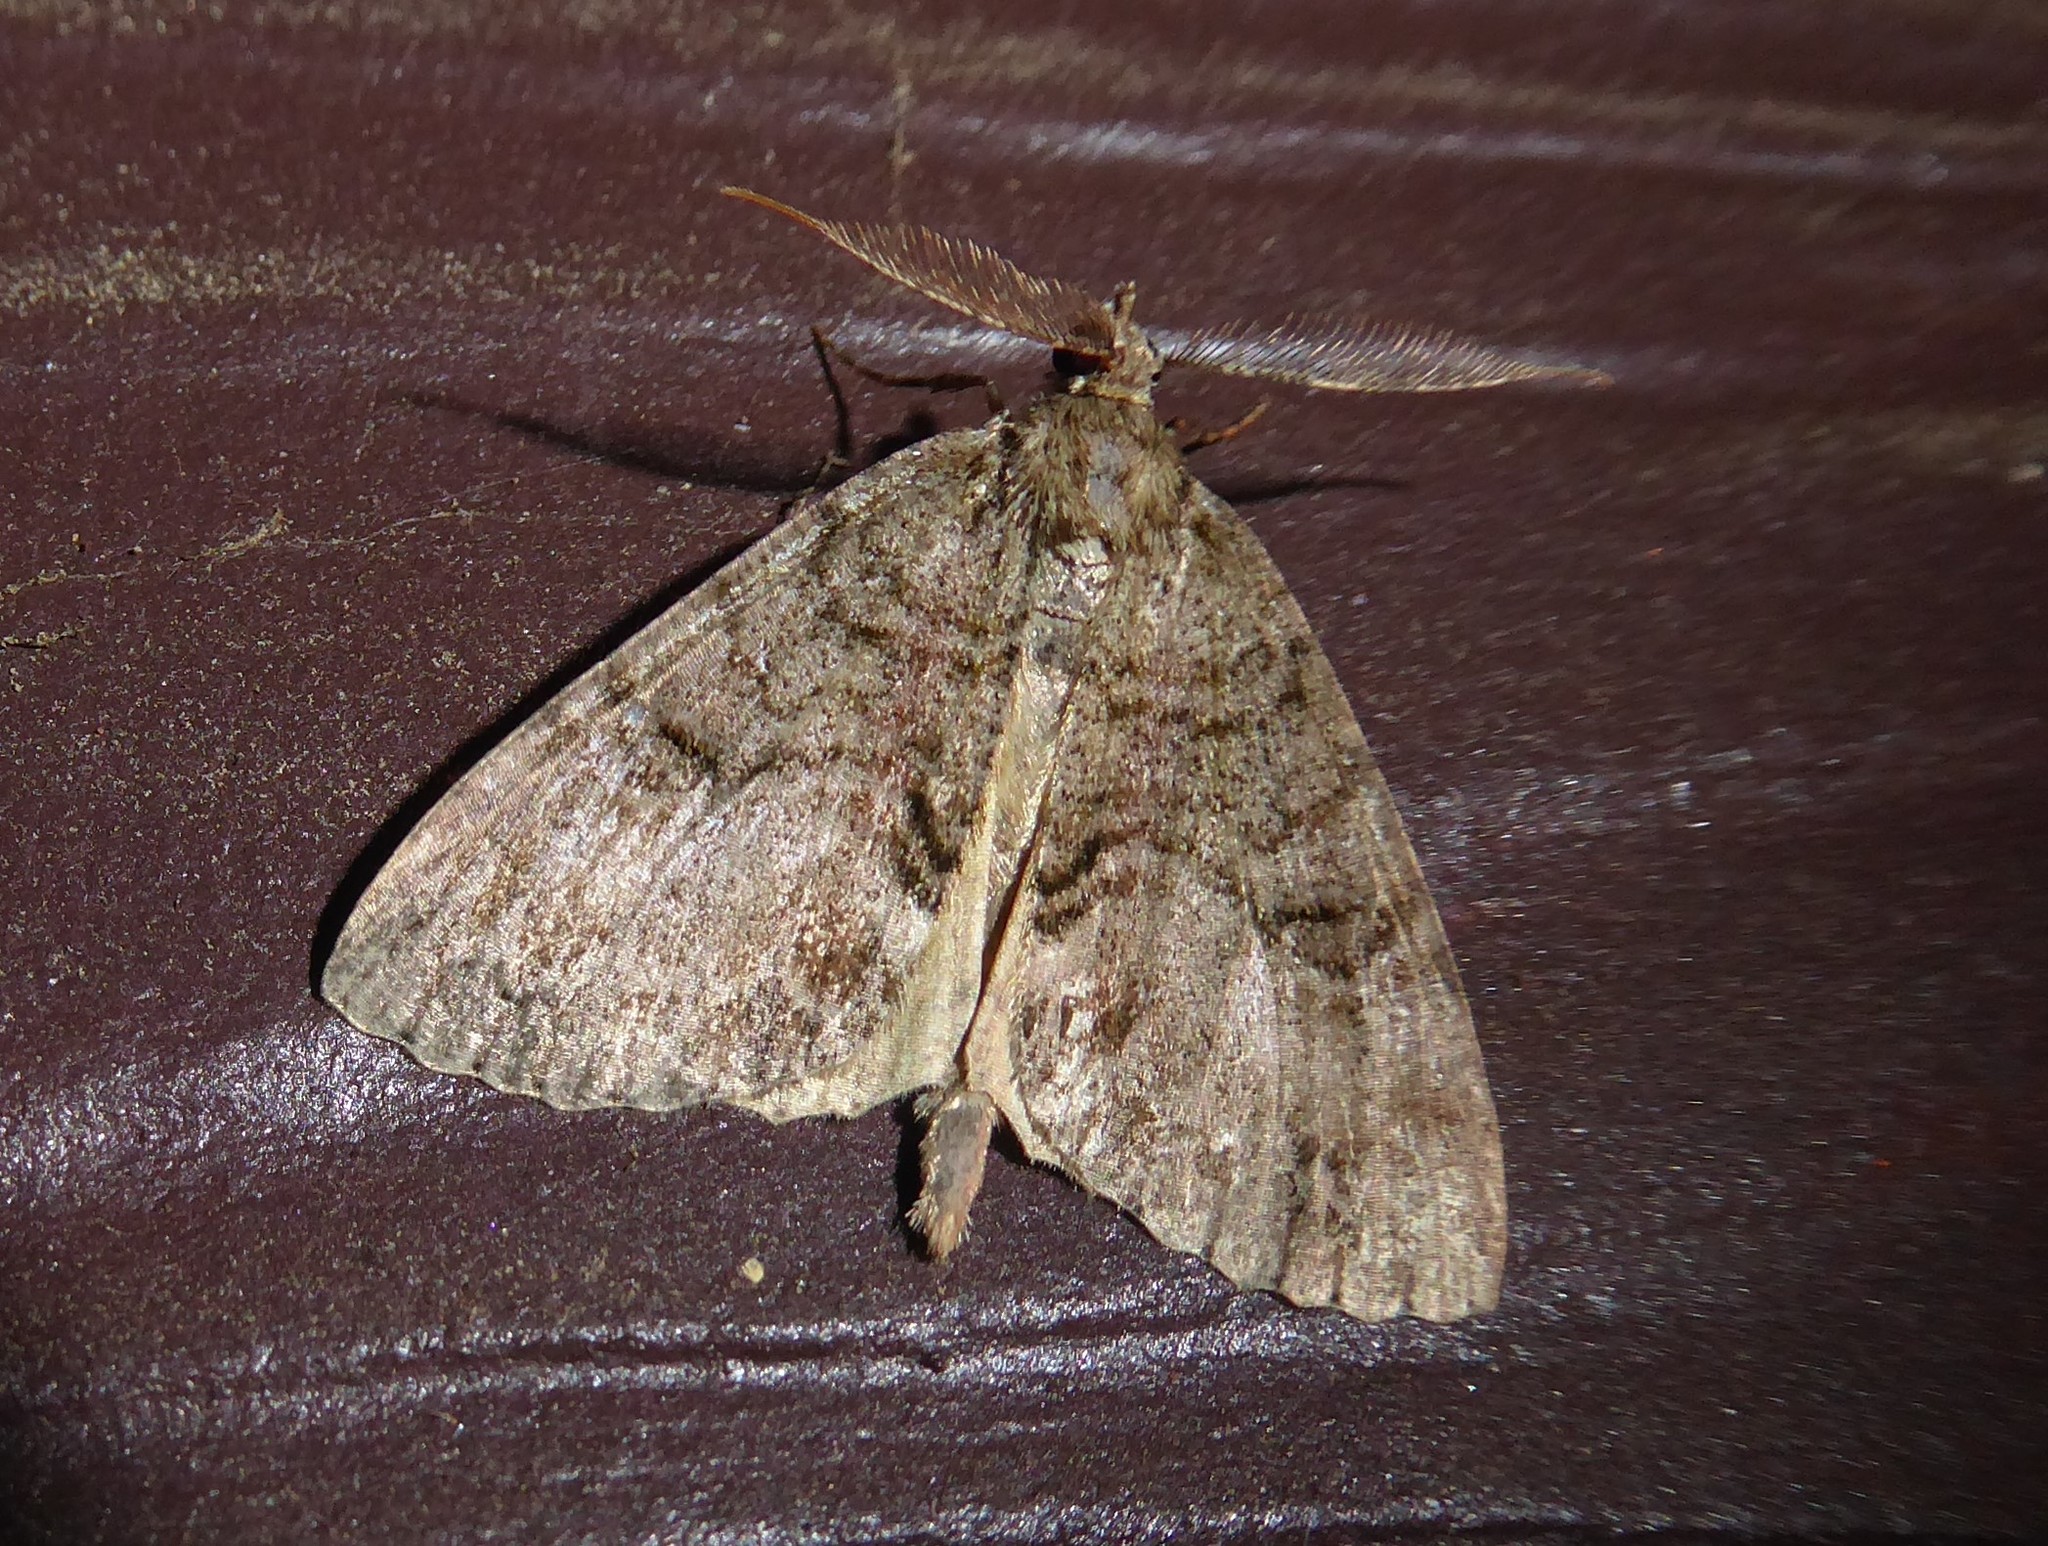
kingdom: Animalia
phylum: Arthropoda
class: Insecta
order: Lepidoptera
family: Geometridae
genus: Pseudocoremia
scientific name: Pseudocoremia suavis
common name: Common forest looper
